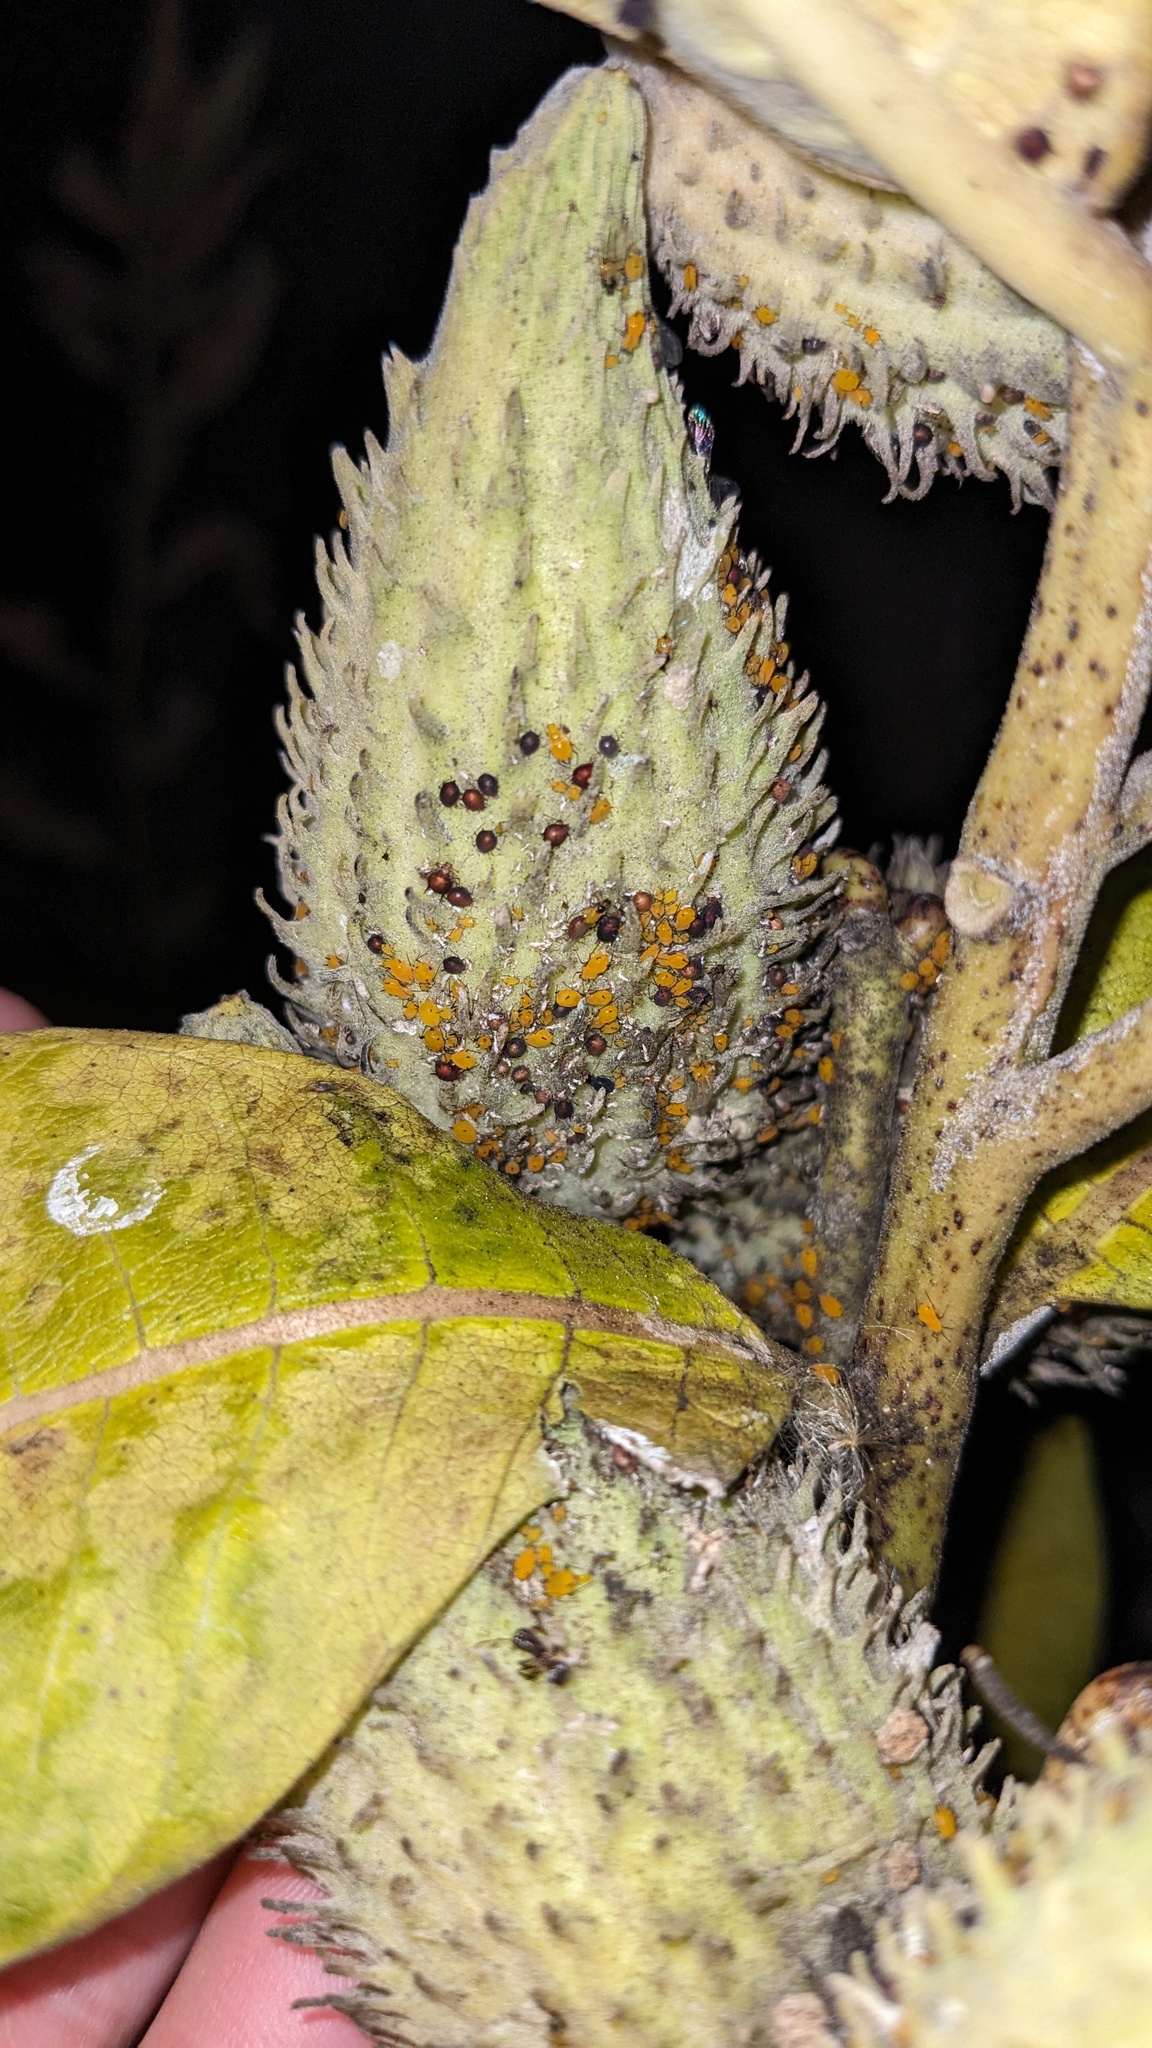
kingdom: Animalia
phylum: Arthropoda
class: Insecta
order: Hemiptera
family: Aphididae
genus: Aphis
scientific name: Aphis nerii
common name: Oleander aphid
